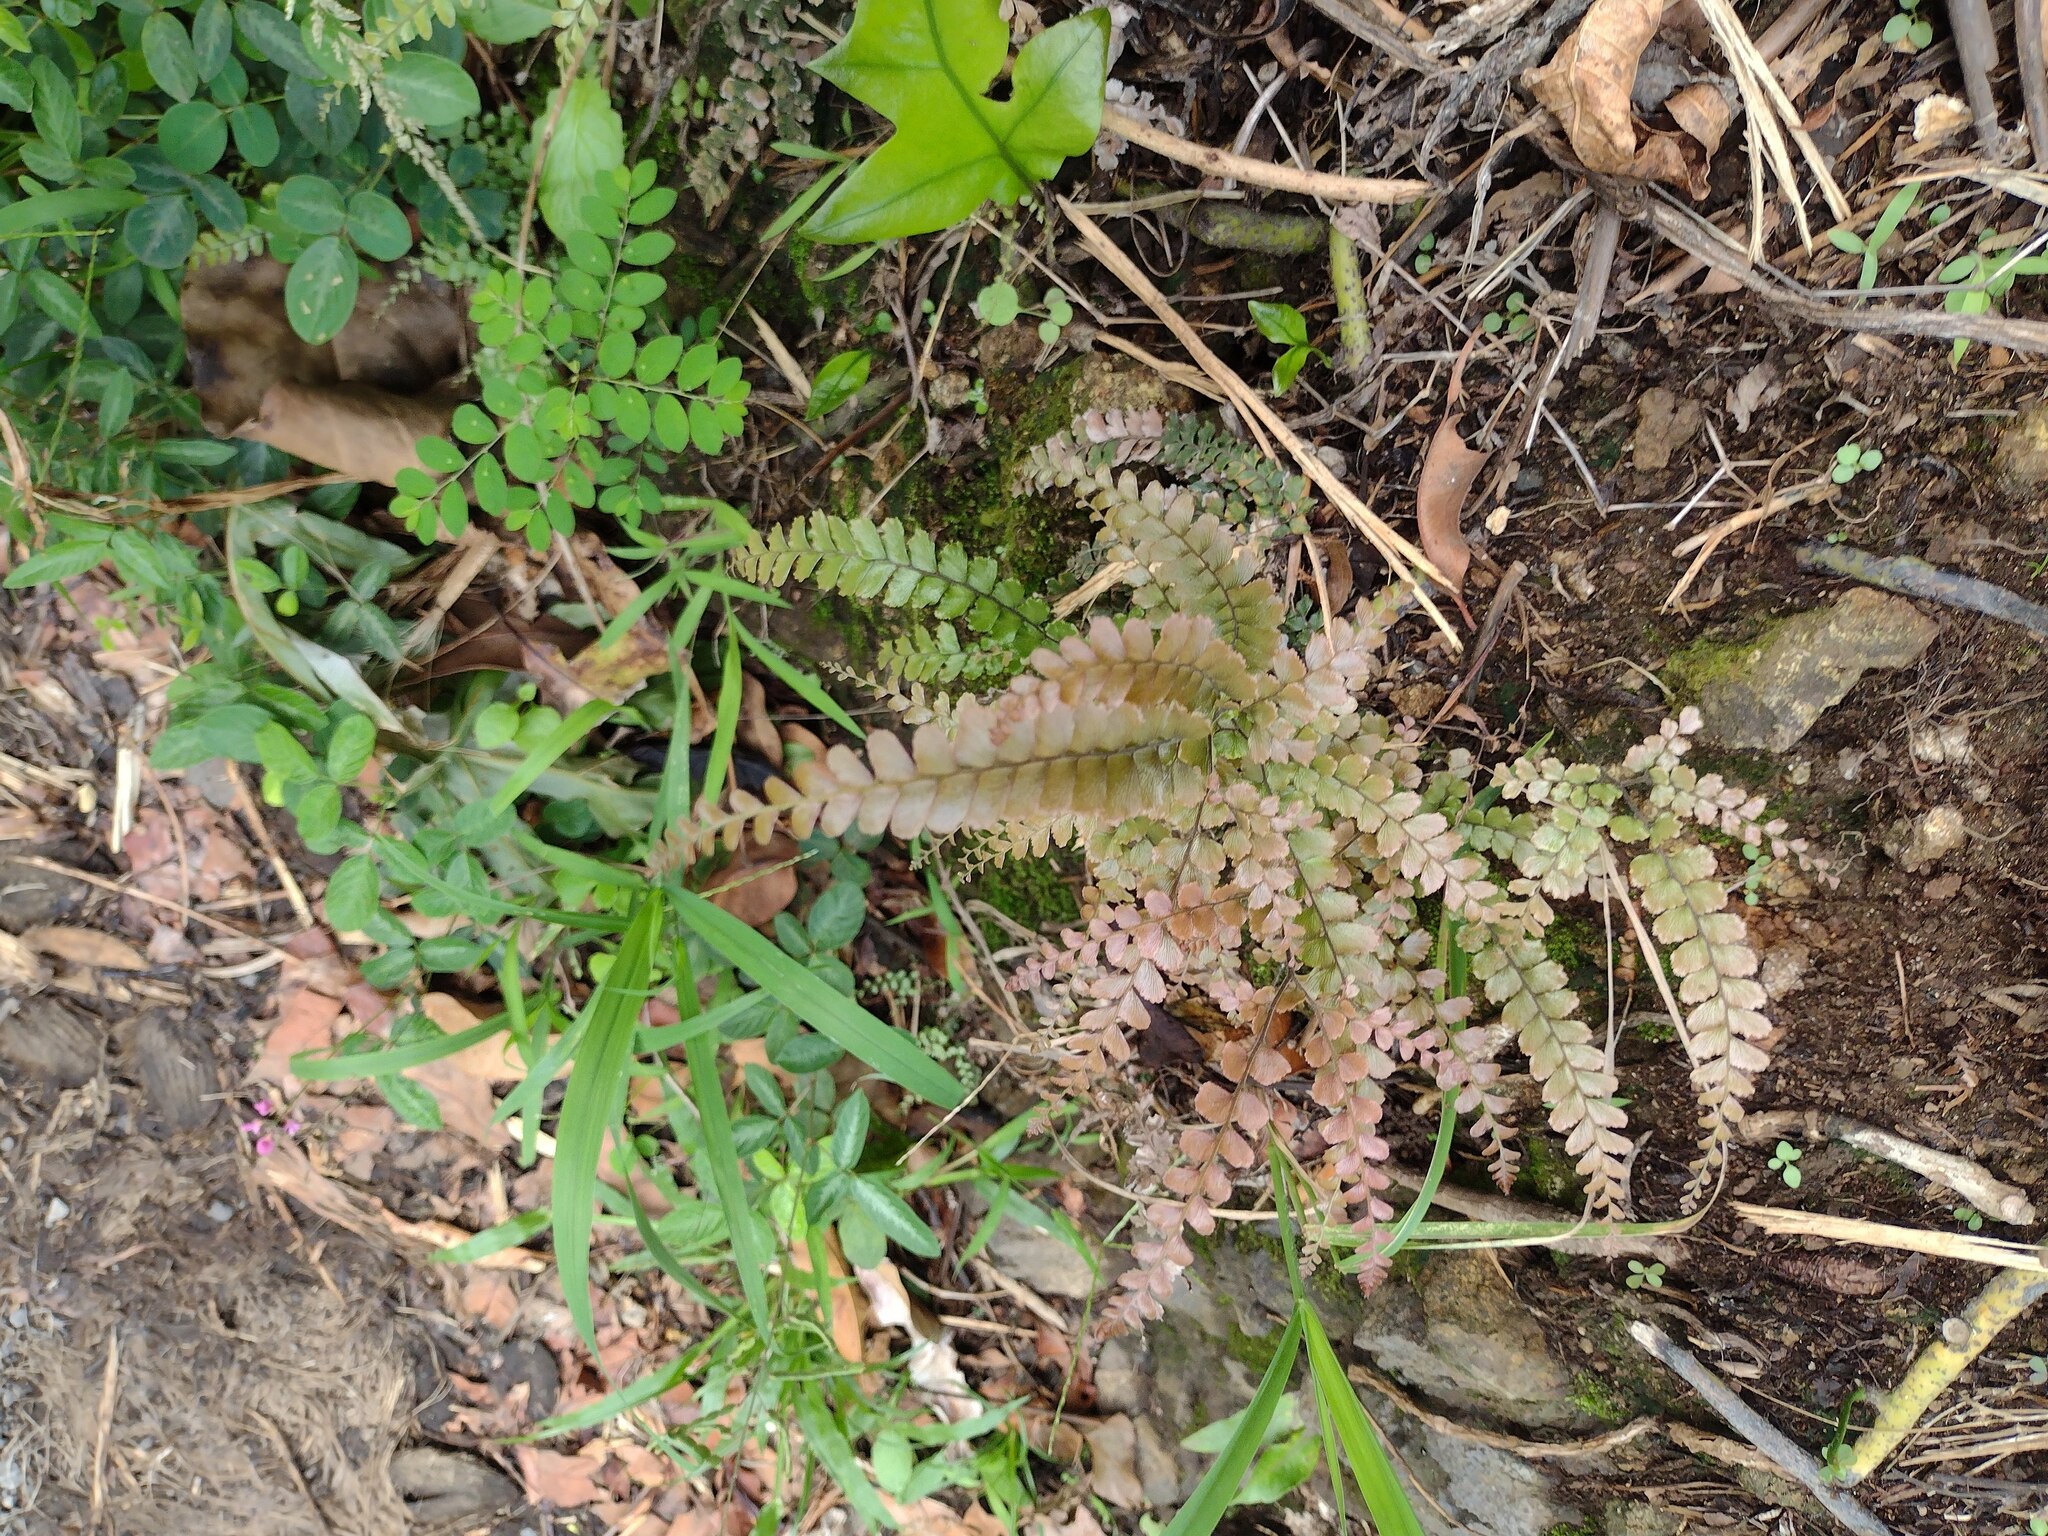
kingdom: Plantae
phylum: Tracheophyta
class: Polypodiopsida
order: Polypodiales
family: Pteridaceae
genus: Adiantum
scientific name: Adiantum hispidulum
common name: Rough maidenhair
